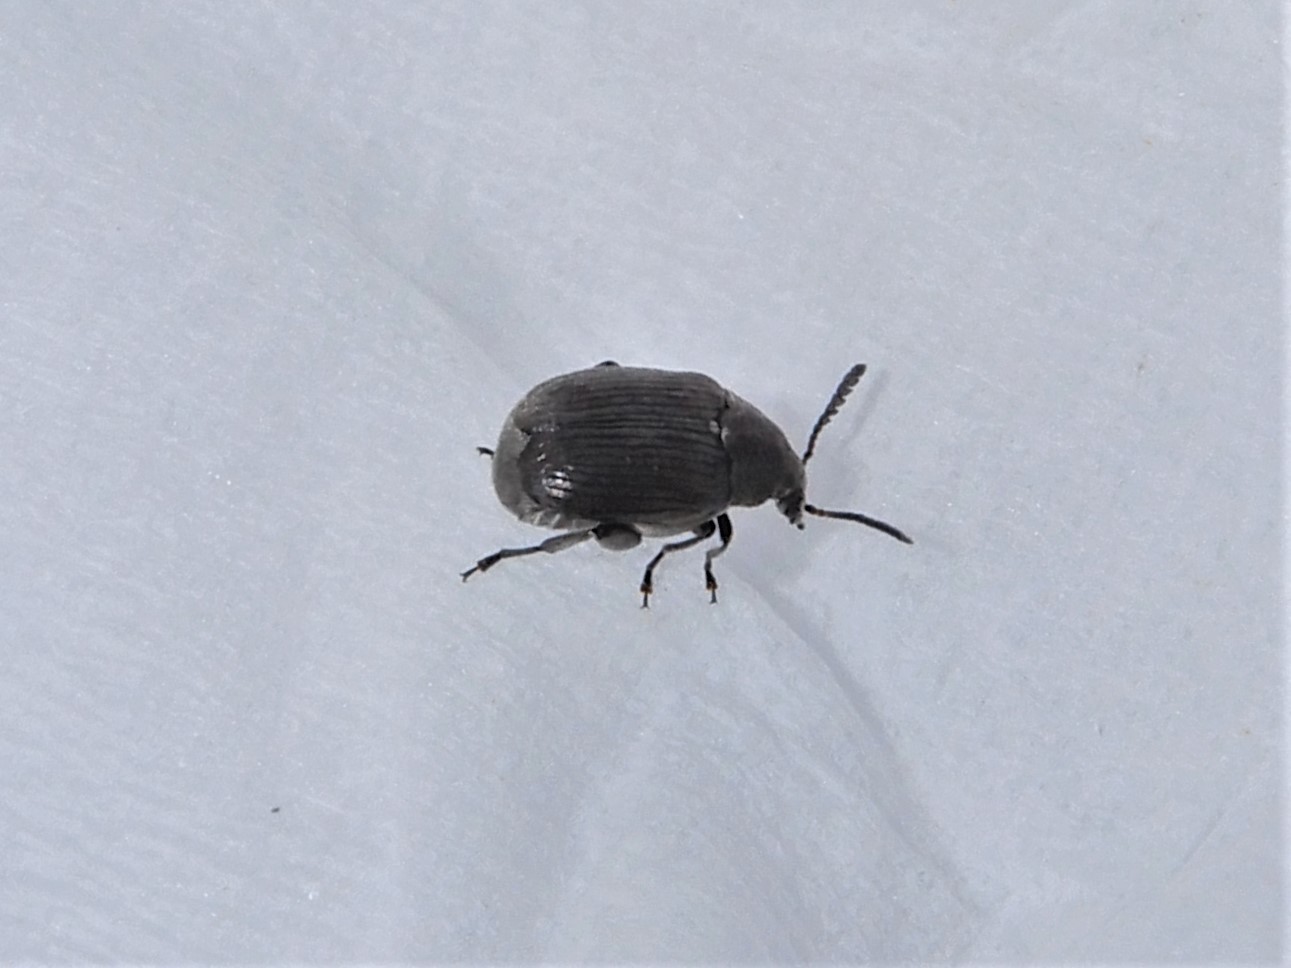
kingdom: Animalia
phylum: Arthropoda
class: Insecta
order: Coleoptera
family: Chrysomelidae
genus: Bruchidius
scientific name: Bruchidius villosus
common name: Scotch broom bruchid
